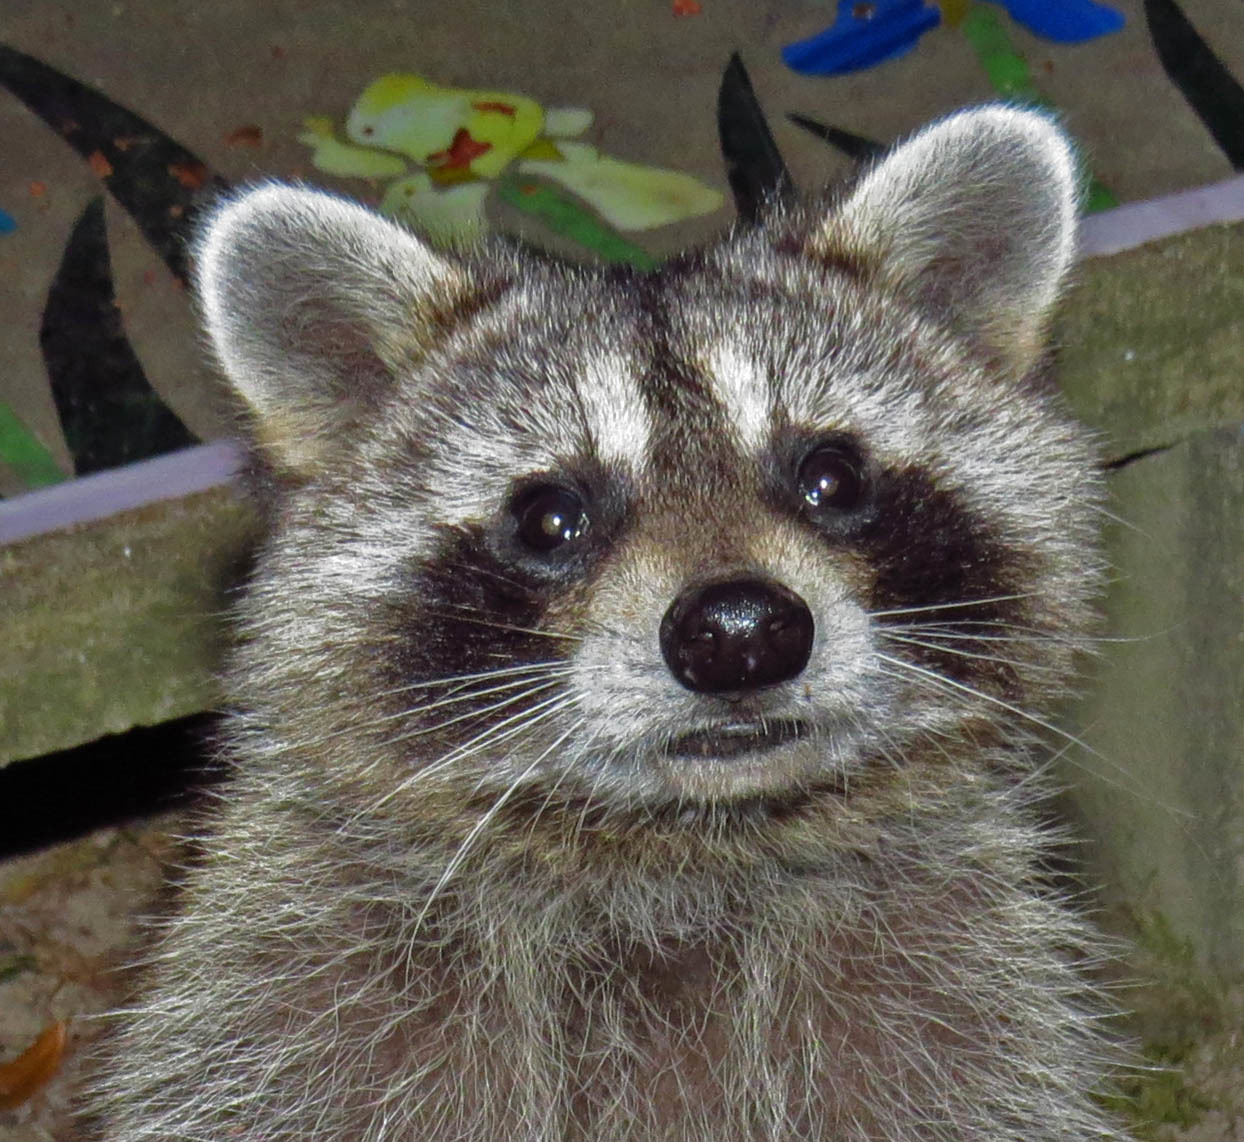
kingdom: Animalia
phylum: Chordata
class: Mammalia
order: Carnivora
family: Procyonidae
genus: Procyon
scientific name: Procyon lotor
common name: Raccoon
